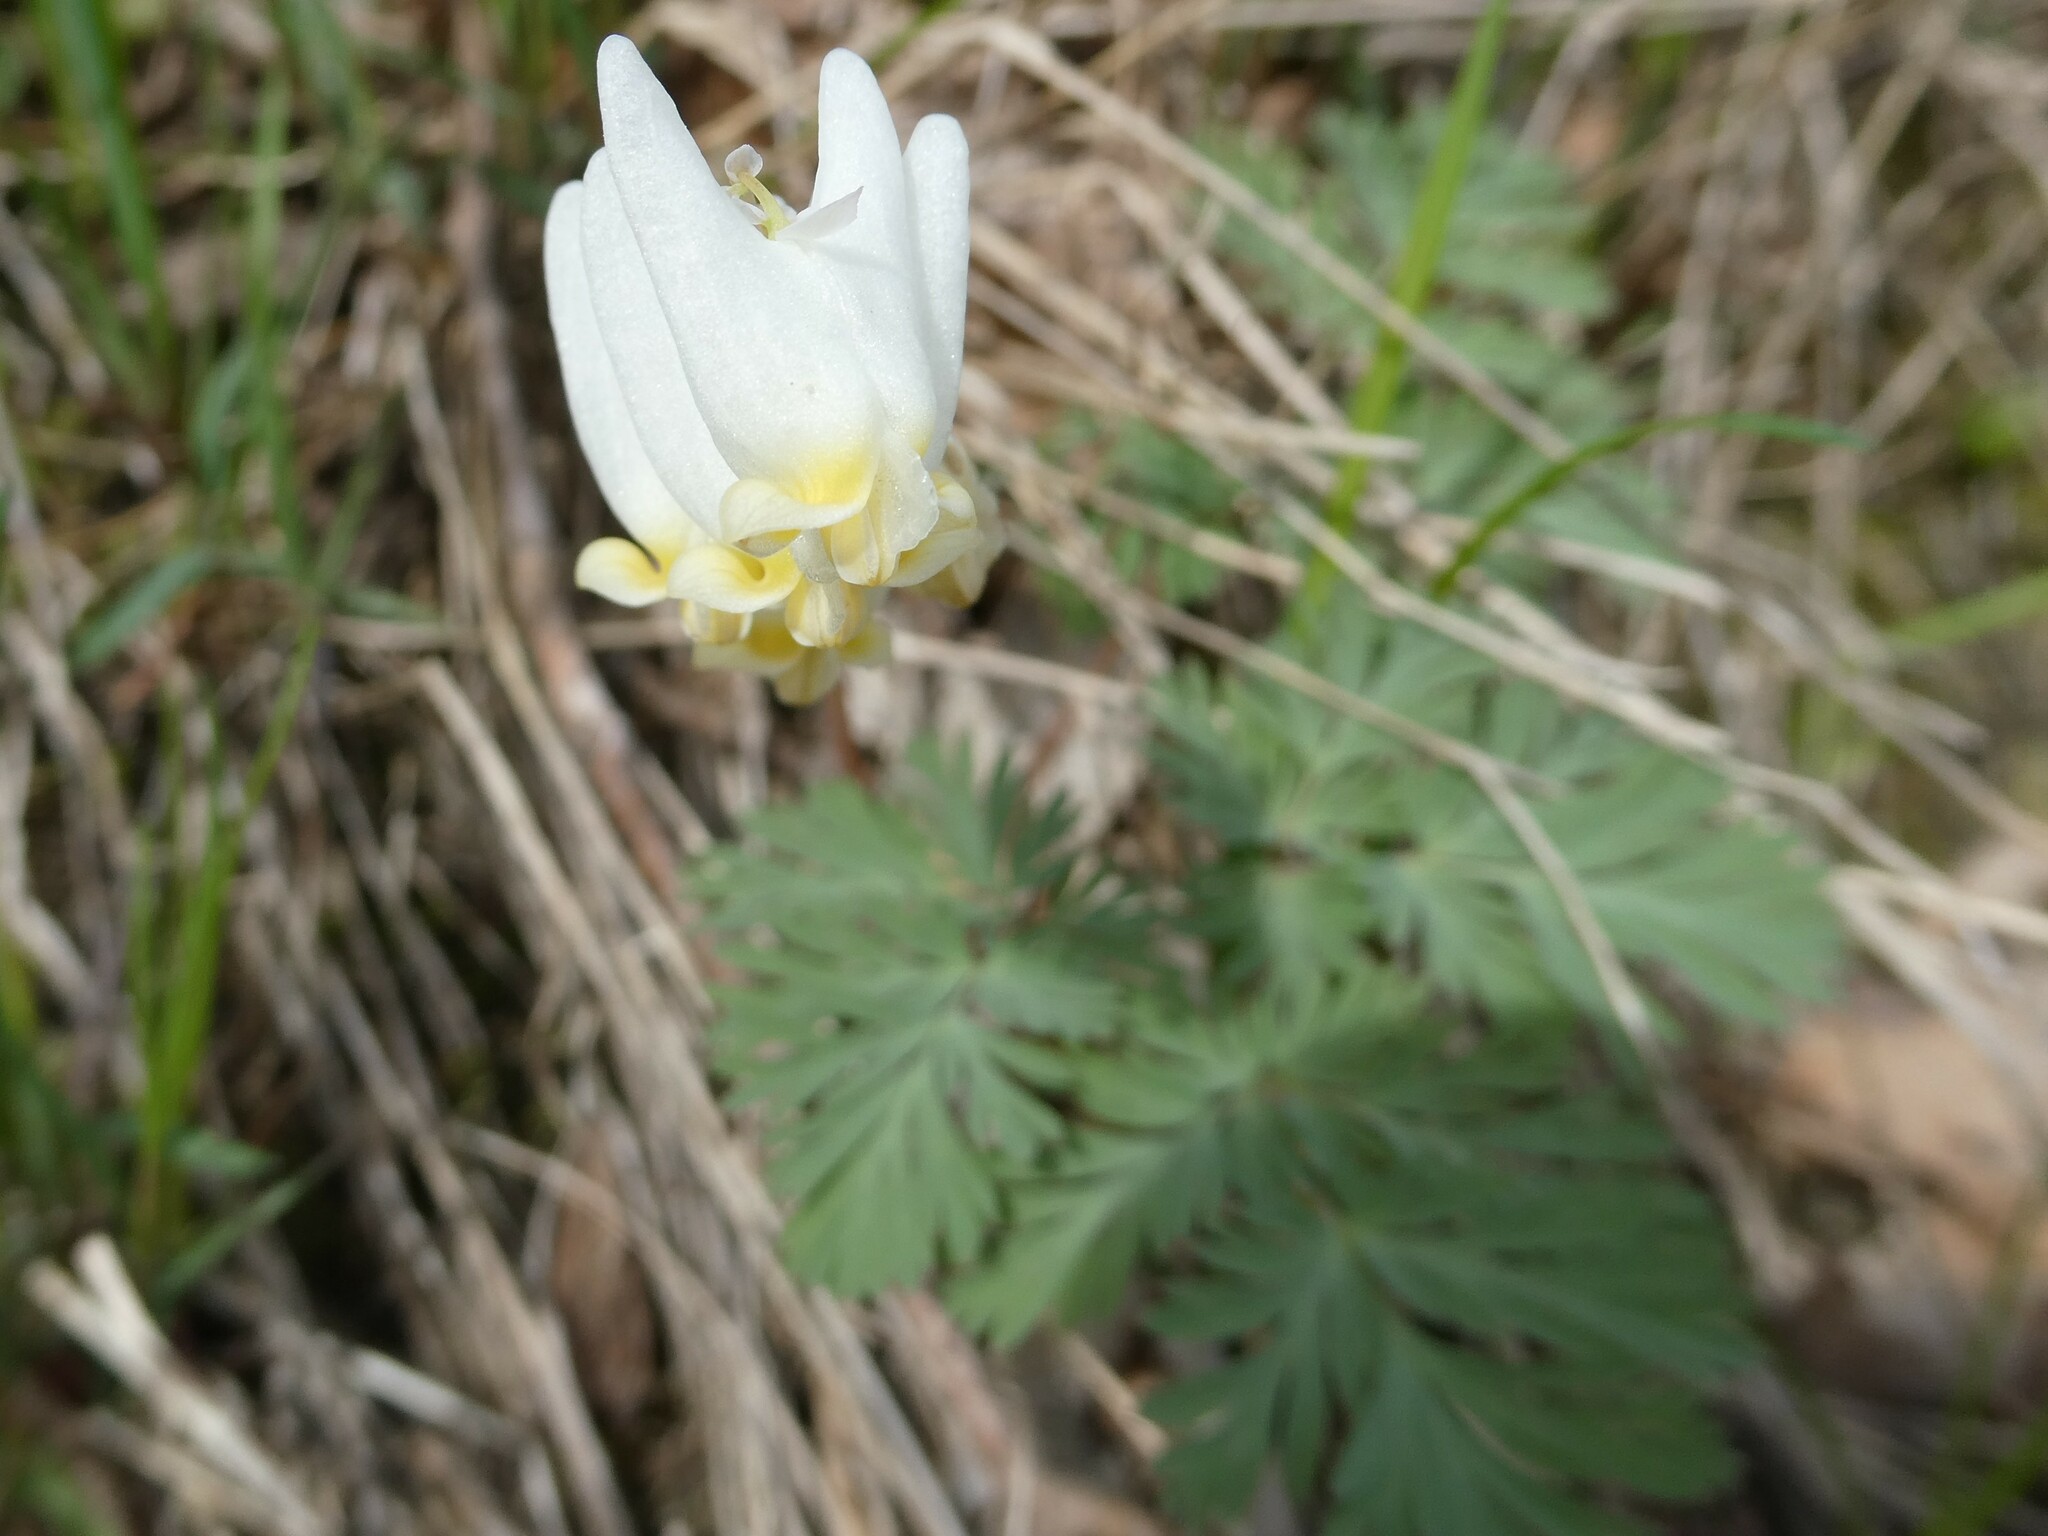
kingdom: Plantae
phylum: Tracheophyta
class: Magnoliopsida
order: Ranunculales
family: Papaveraceae
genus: Dicentra
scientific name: Dicentra cucullaria
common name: Dutchman's breeches
